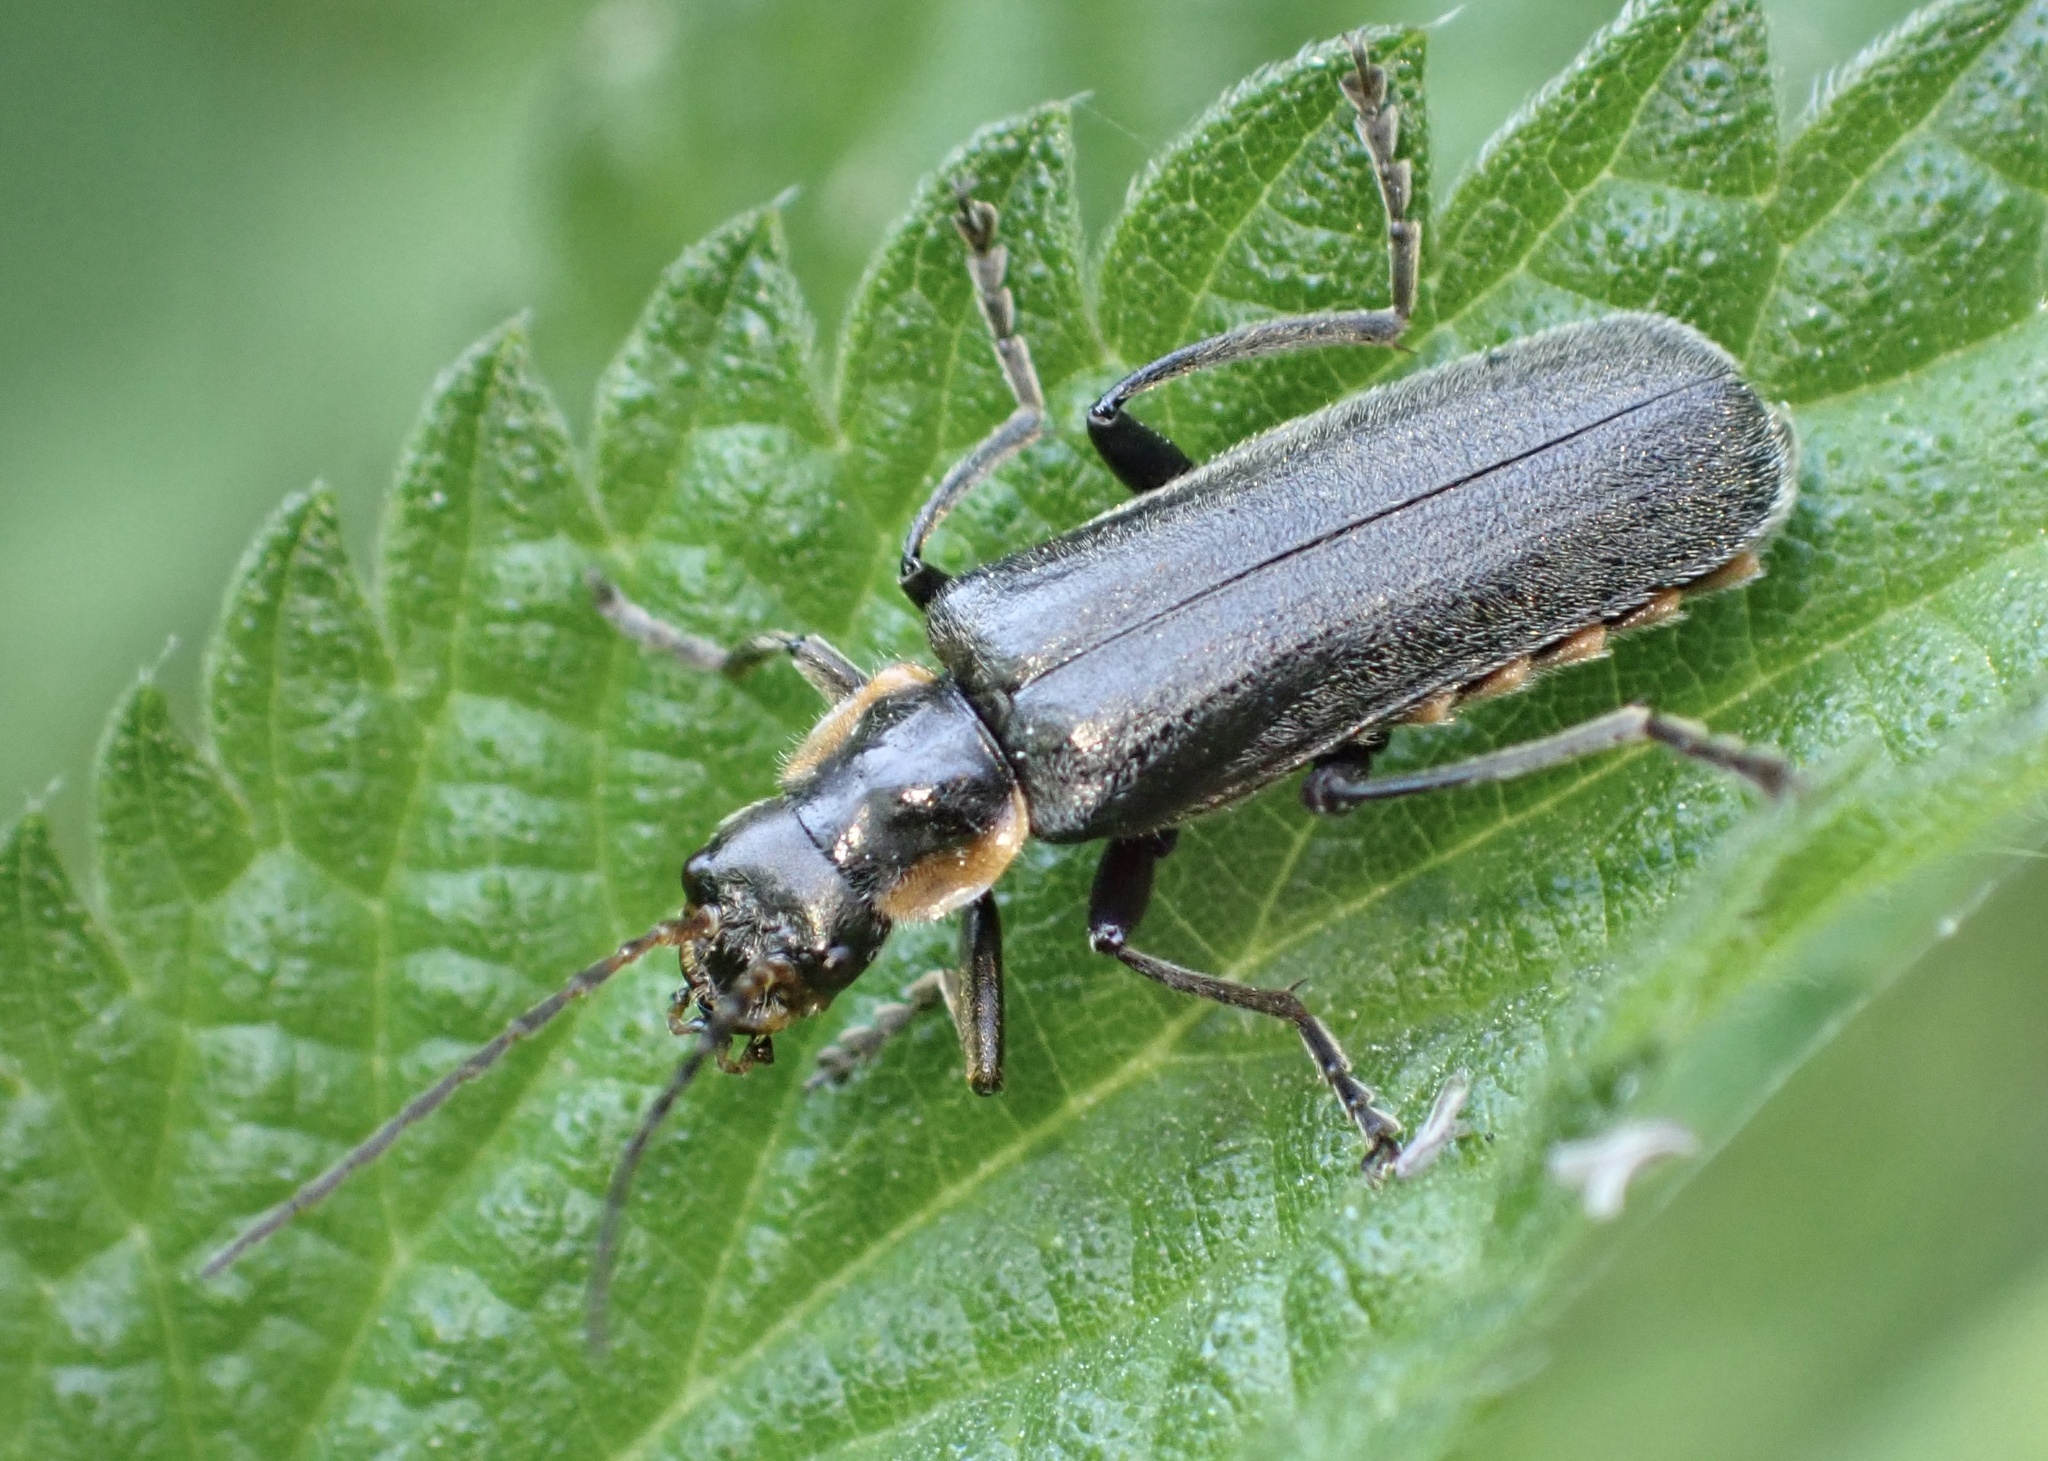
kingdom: Animalia
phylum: Arthropoda
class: Insecta
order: Coleoptera
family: Cantharidae
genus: Cantharis
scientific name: Cantharis obscura
